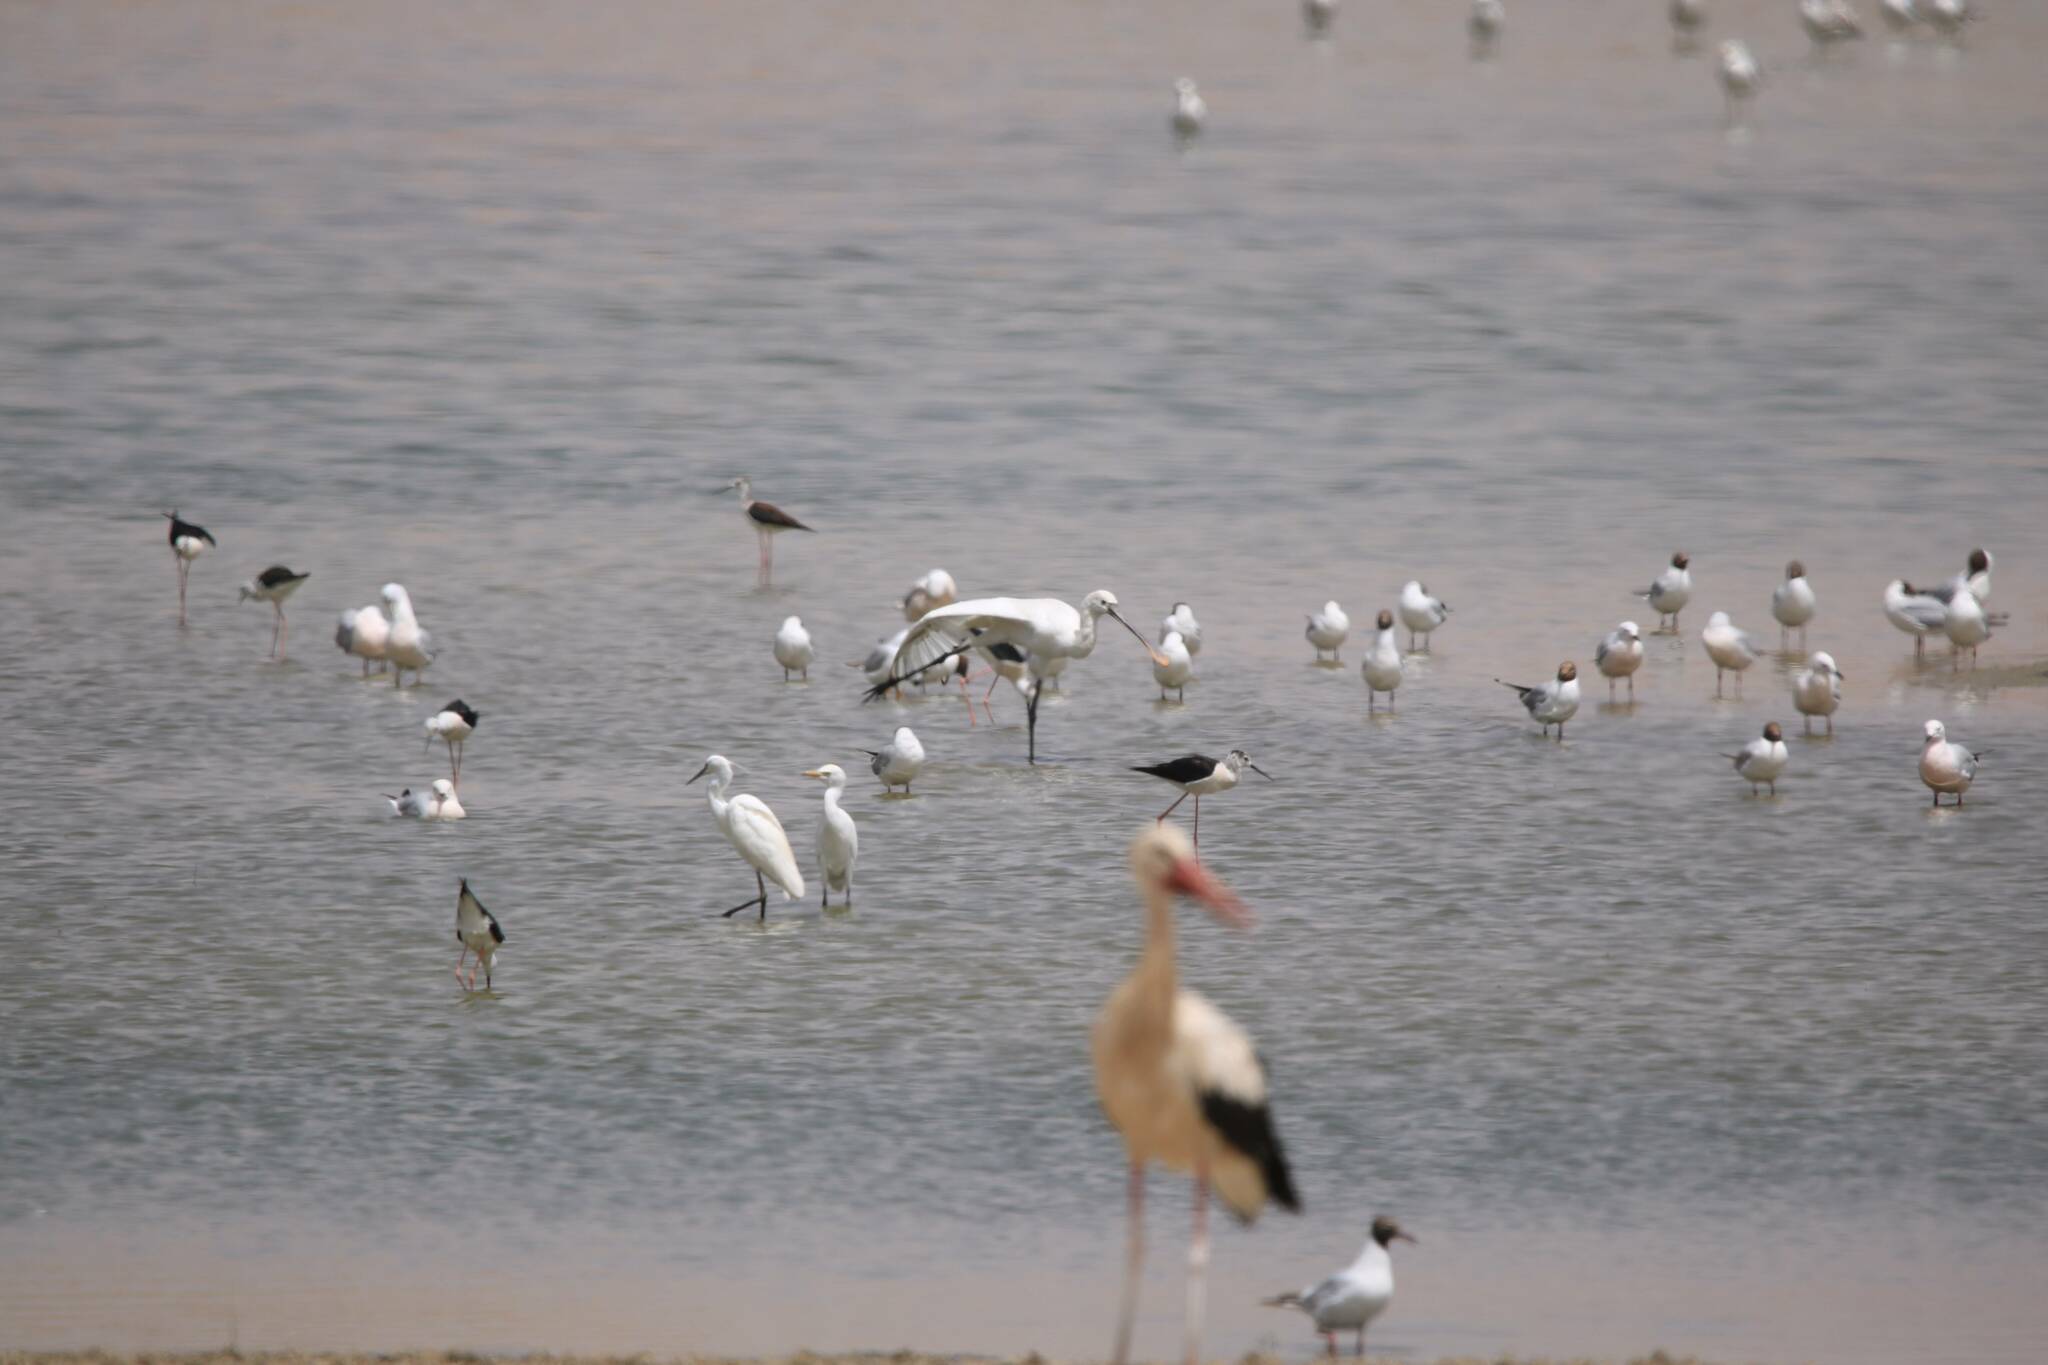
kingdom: Animalia
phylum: Chordata
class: Aves
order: Pelecaniformes
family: Threskiornithidae
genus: Platalea
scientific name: Platalea leucorodia
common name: Eurasian spoonbill
